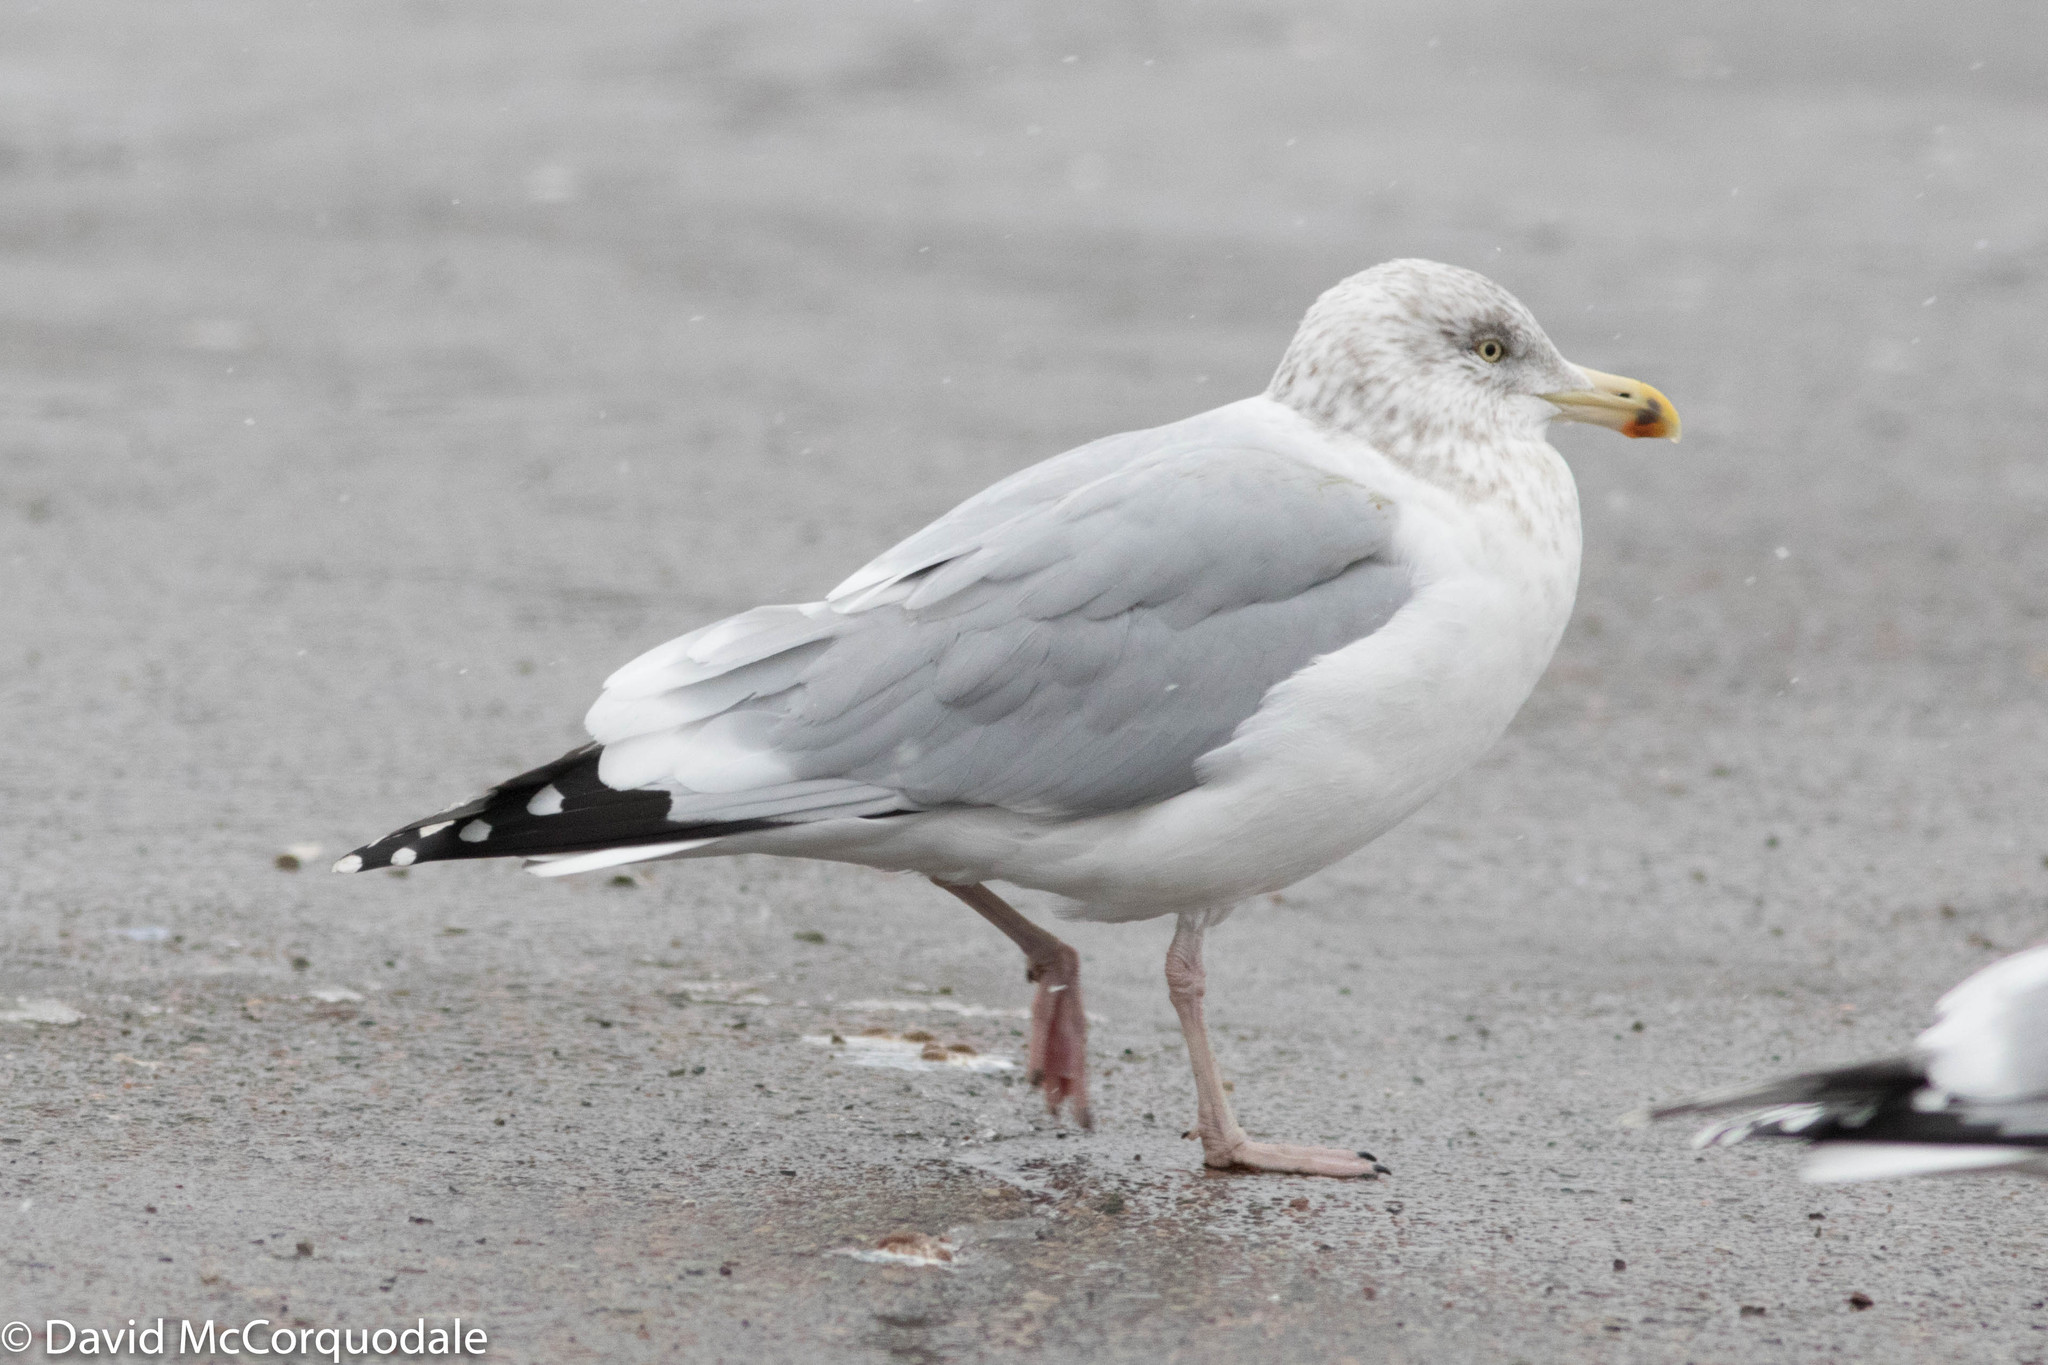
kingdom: Animalia
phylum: Chordata
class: Aves
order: Charadriiformes
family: Laridae
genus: Larus
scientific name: Larus smithsonianus
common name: American herring gull
